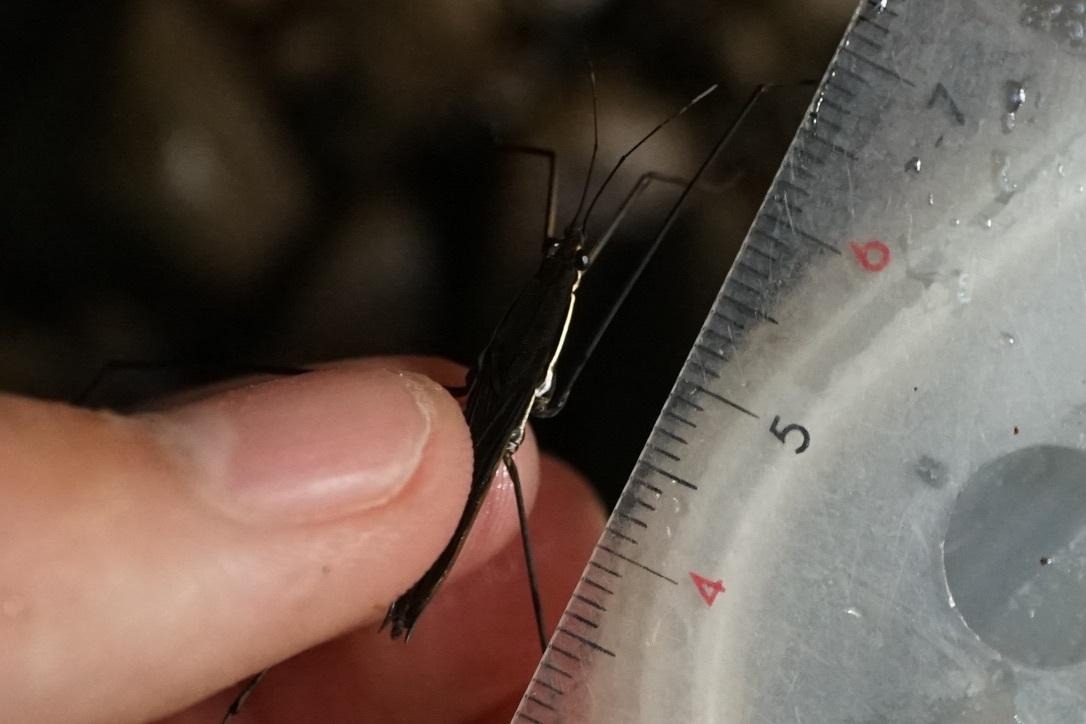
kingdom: Animalia
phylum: Arthropoda
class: Insecta
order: Hemiptera
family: Gerridae
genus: Aquarius
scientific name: Aquarius elongatus
